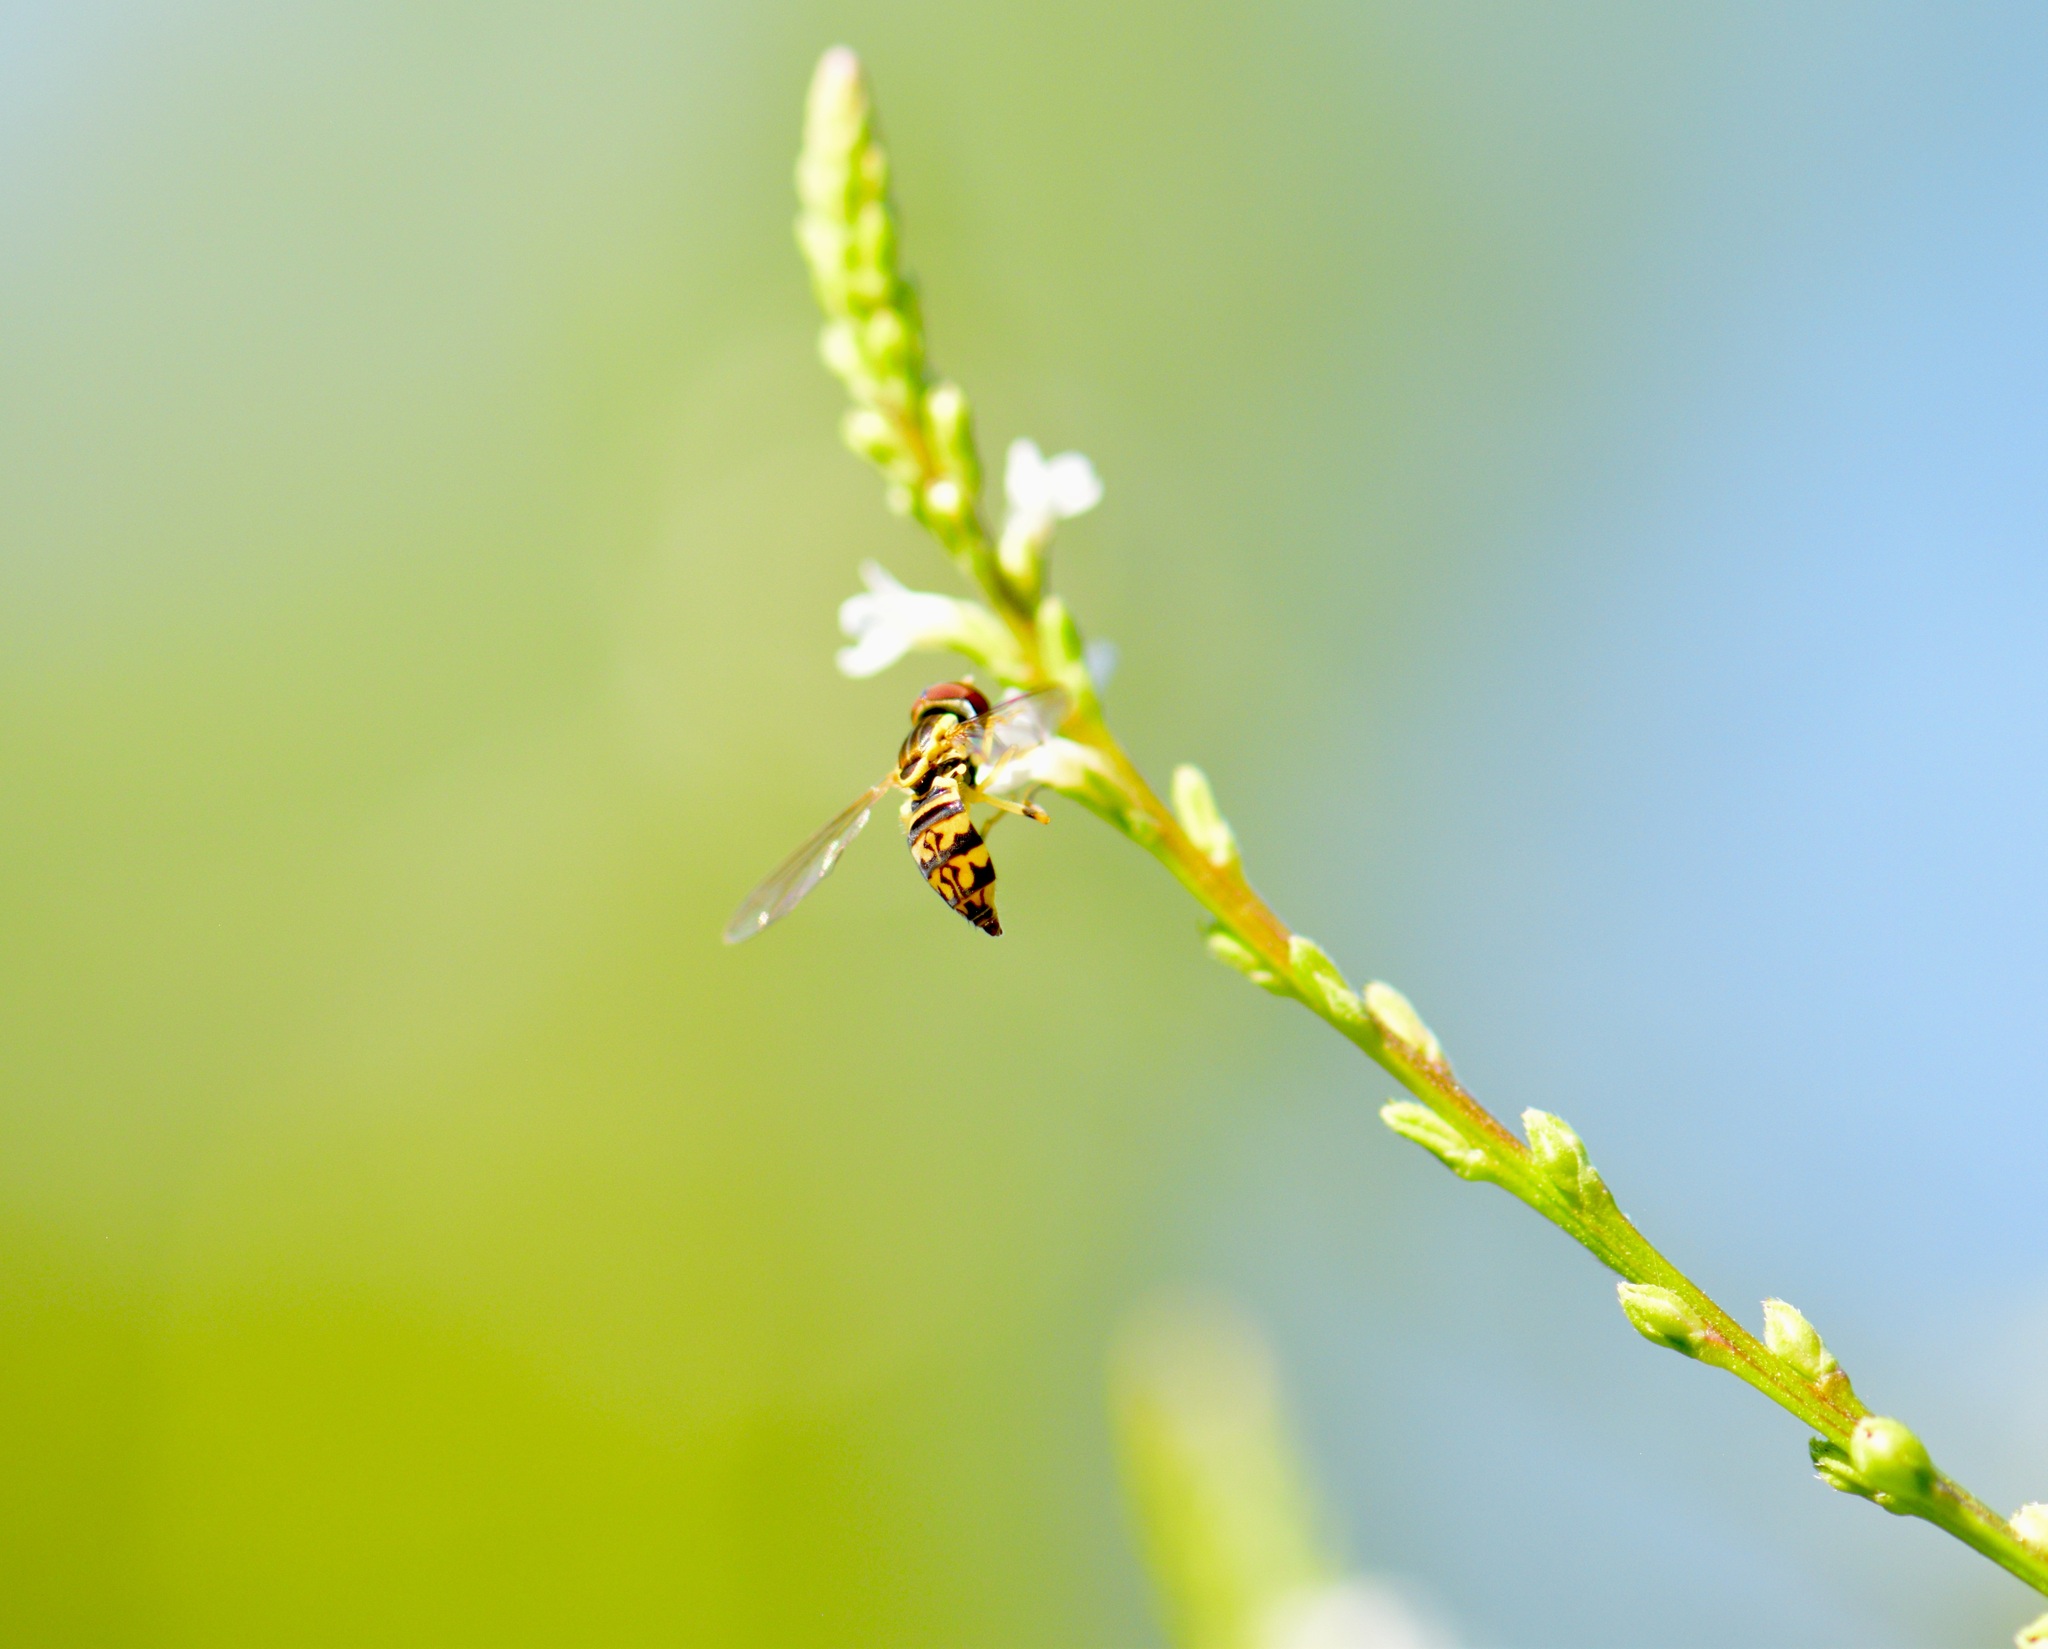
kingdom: Animalia
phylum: Arthropoda
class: Insecta
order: Diptera
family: Syrphidae
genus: Toxomerus
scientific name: Toxomerus geminatus
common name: Eastern calligrapher
